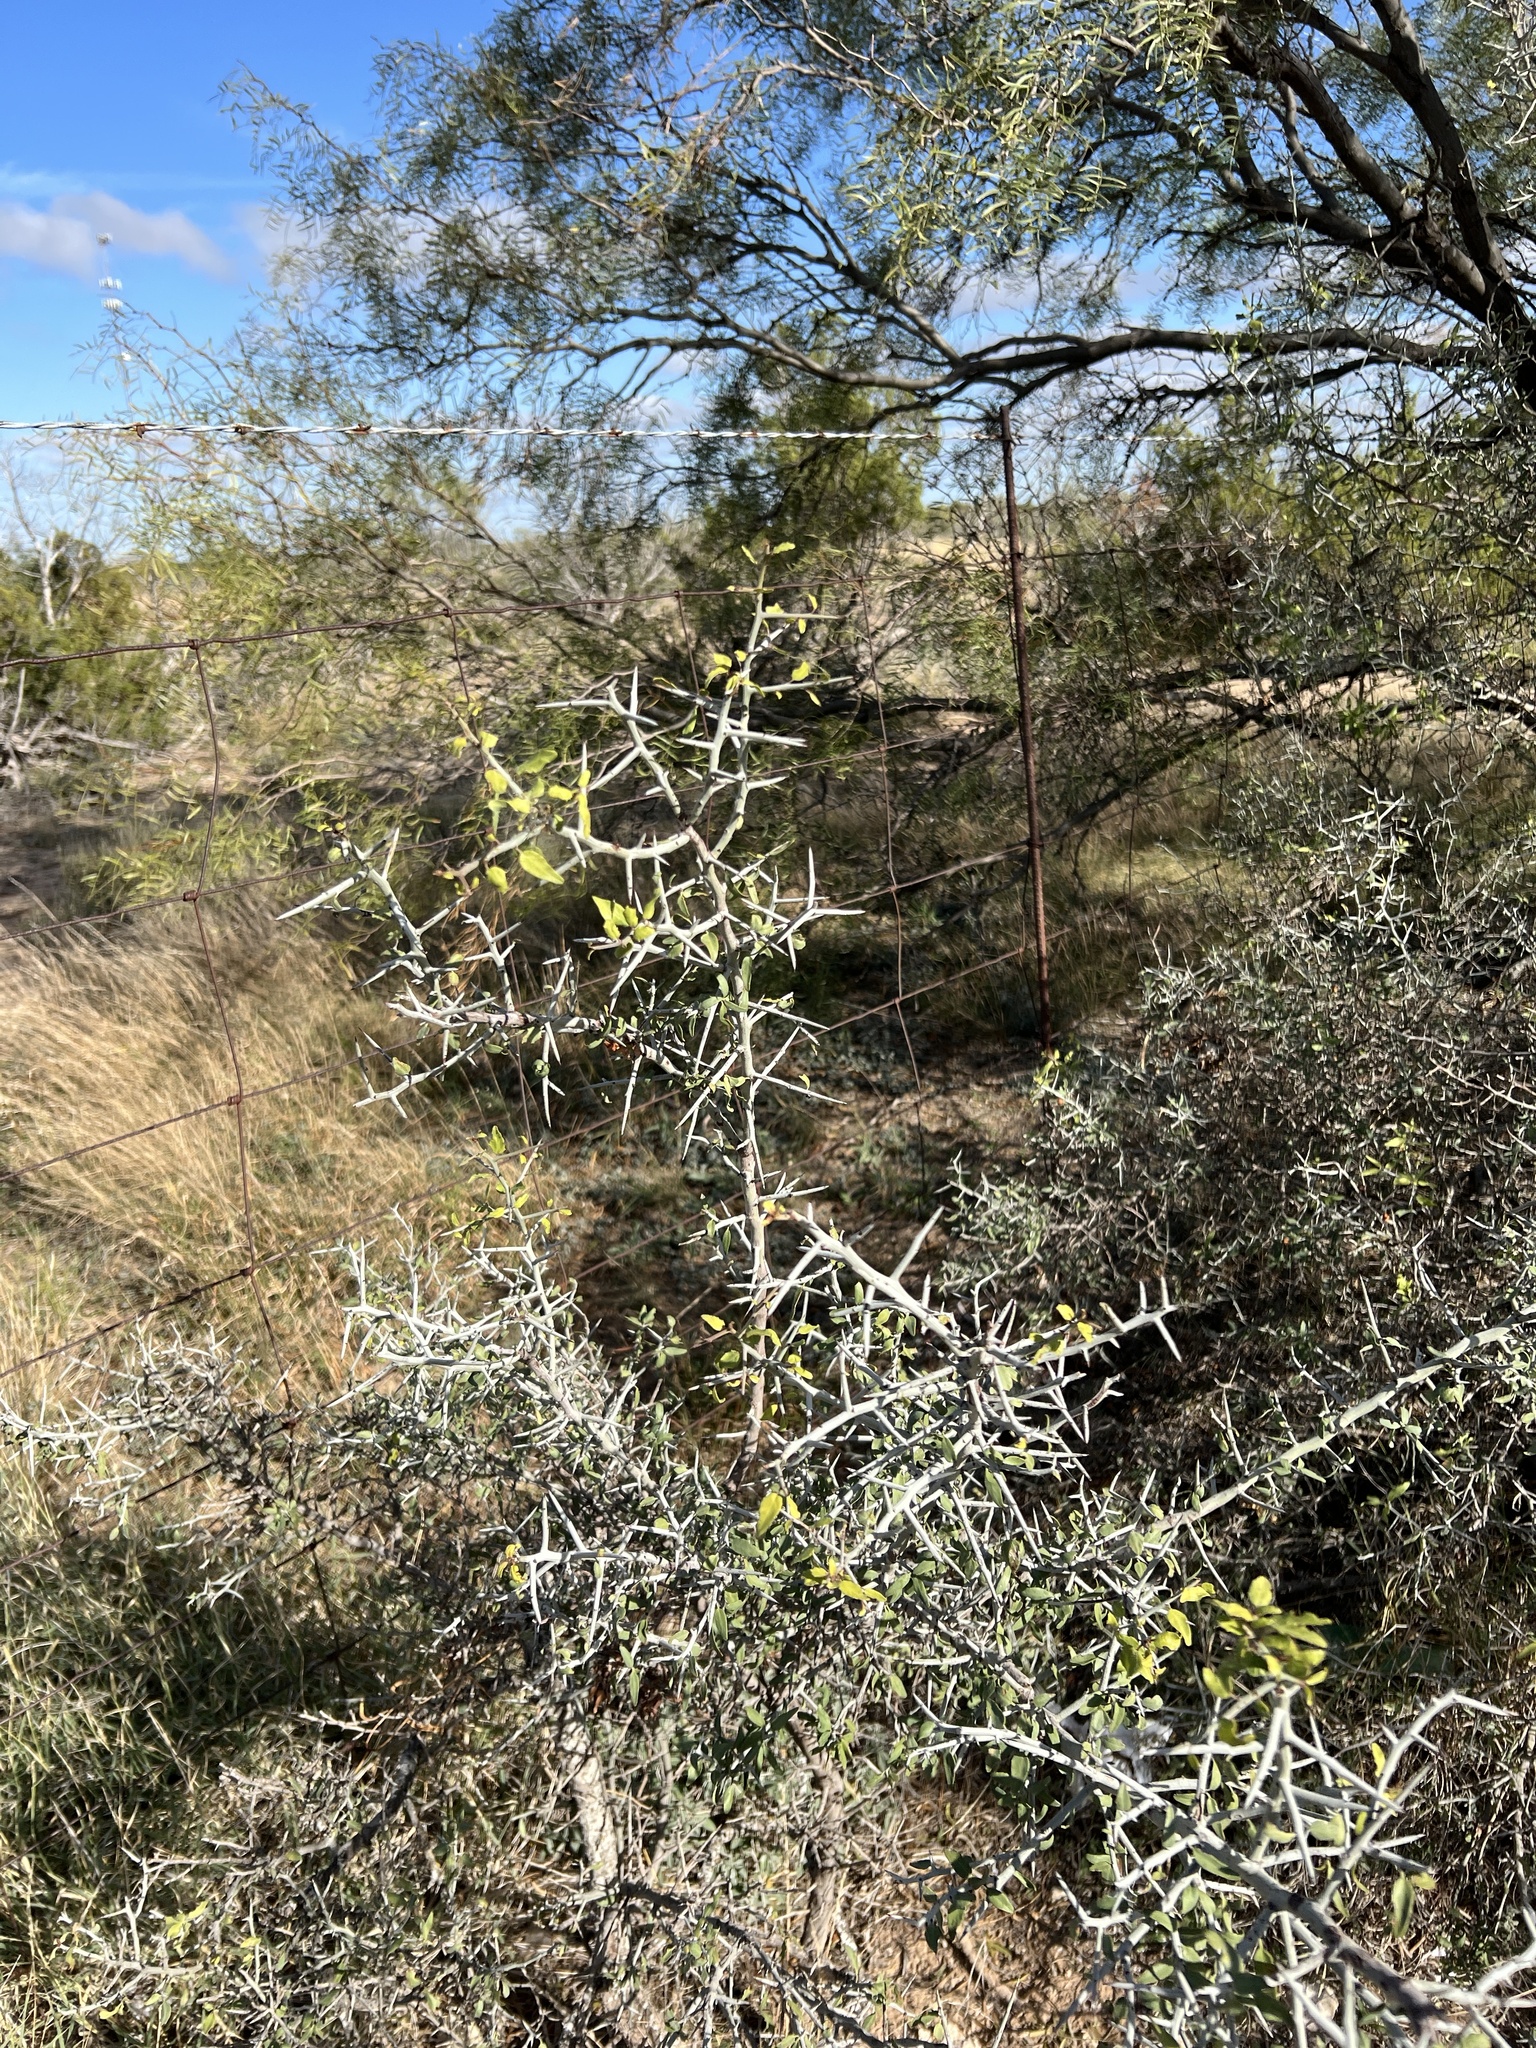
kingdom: Plantae
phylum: Tracheophyta
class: Magnoliopsida
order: Rosales
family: Rhamnaceae
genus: Sarcomphalus
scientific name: Sarcomphalus obtusifolius
